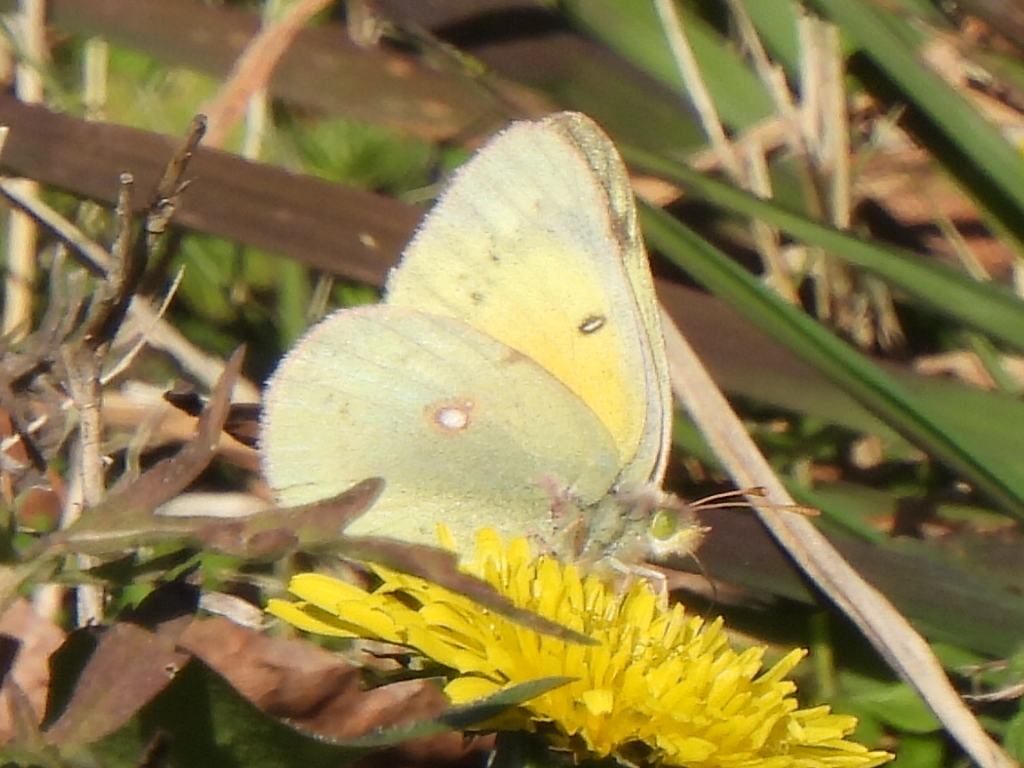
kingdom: Animalia
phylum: Arthropoda
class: Insecta
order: Lepidoptera
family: Pieridae
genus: Colias
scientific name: Colias eurytheme
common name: Alfalfa butterfly
